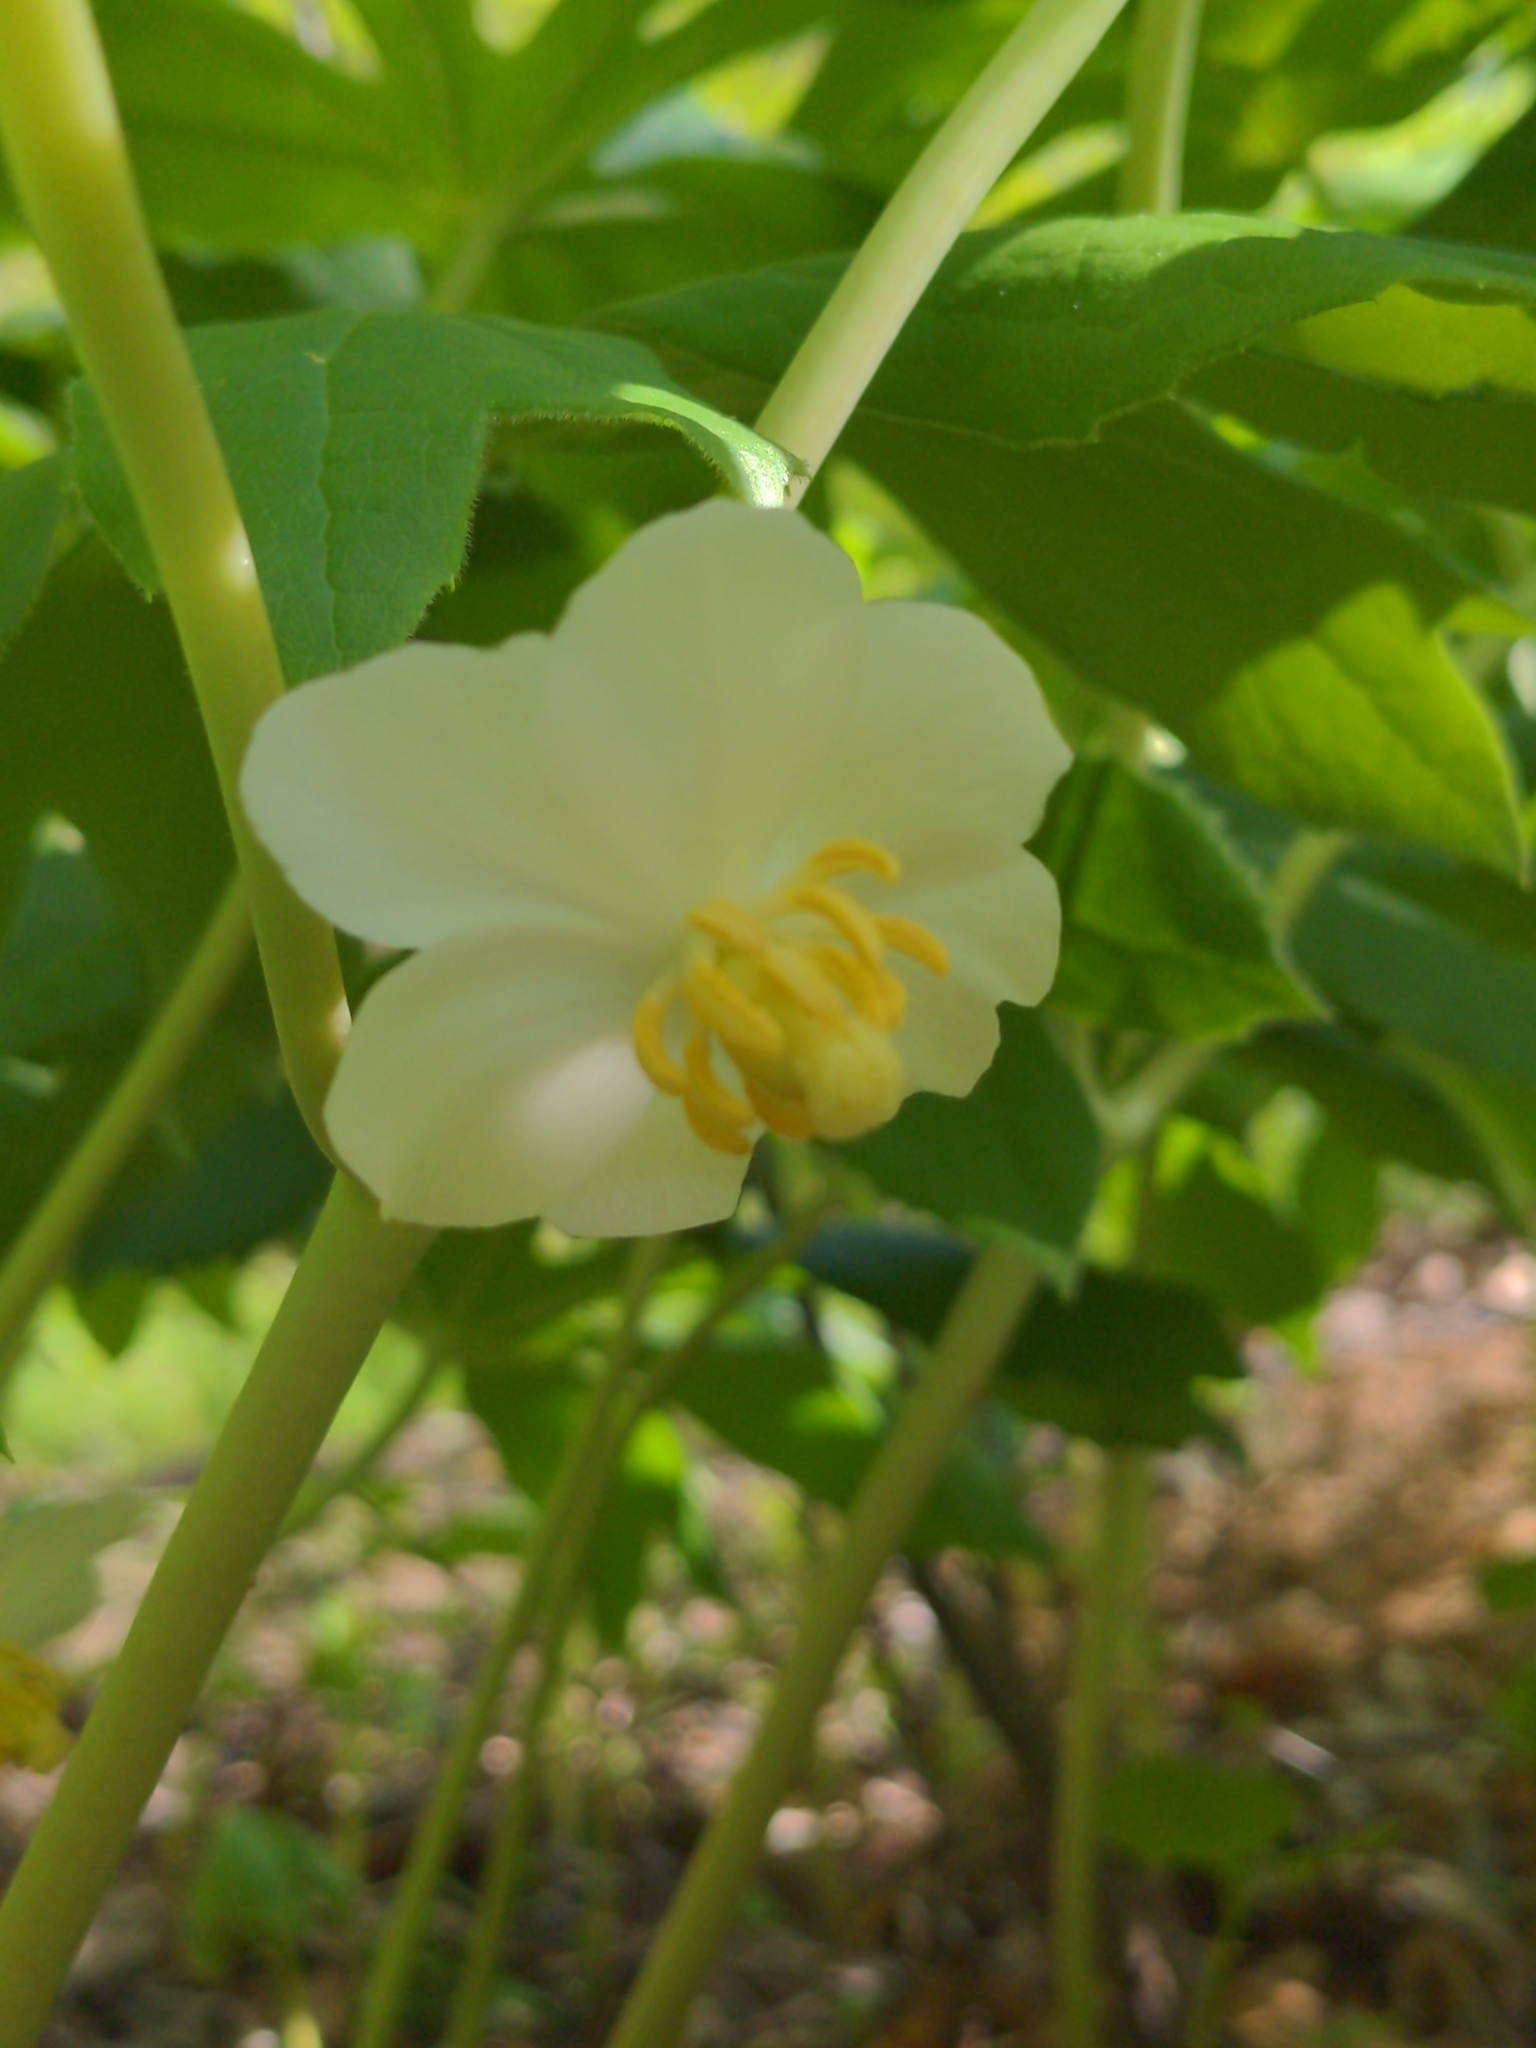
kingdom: Plantae
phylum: Tracheophyta
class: Magnoliopsida
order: Ranunculales
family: Berberidaceae
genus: Podophyllum
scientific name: Podophyllum peltatum
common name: Wild mandrake
